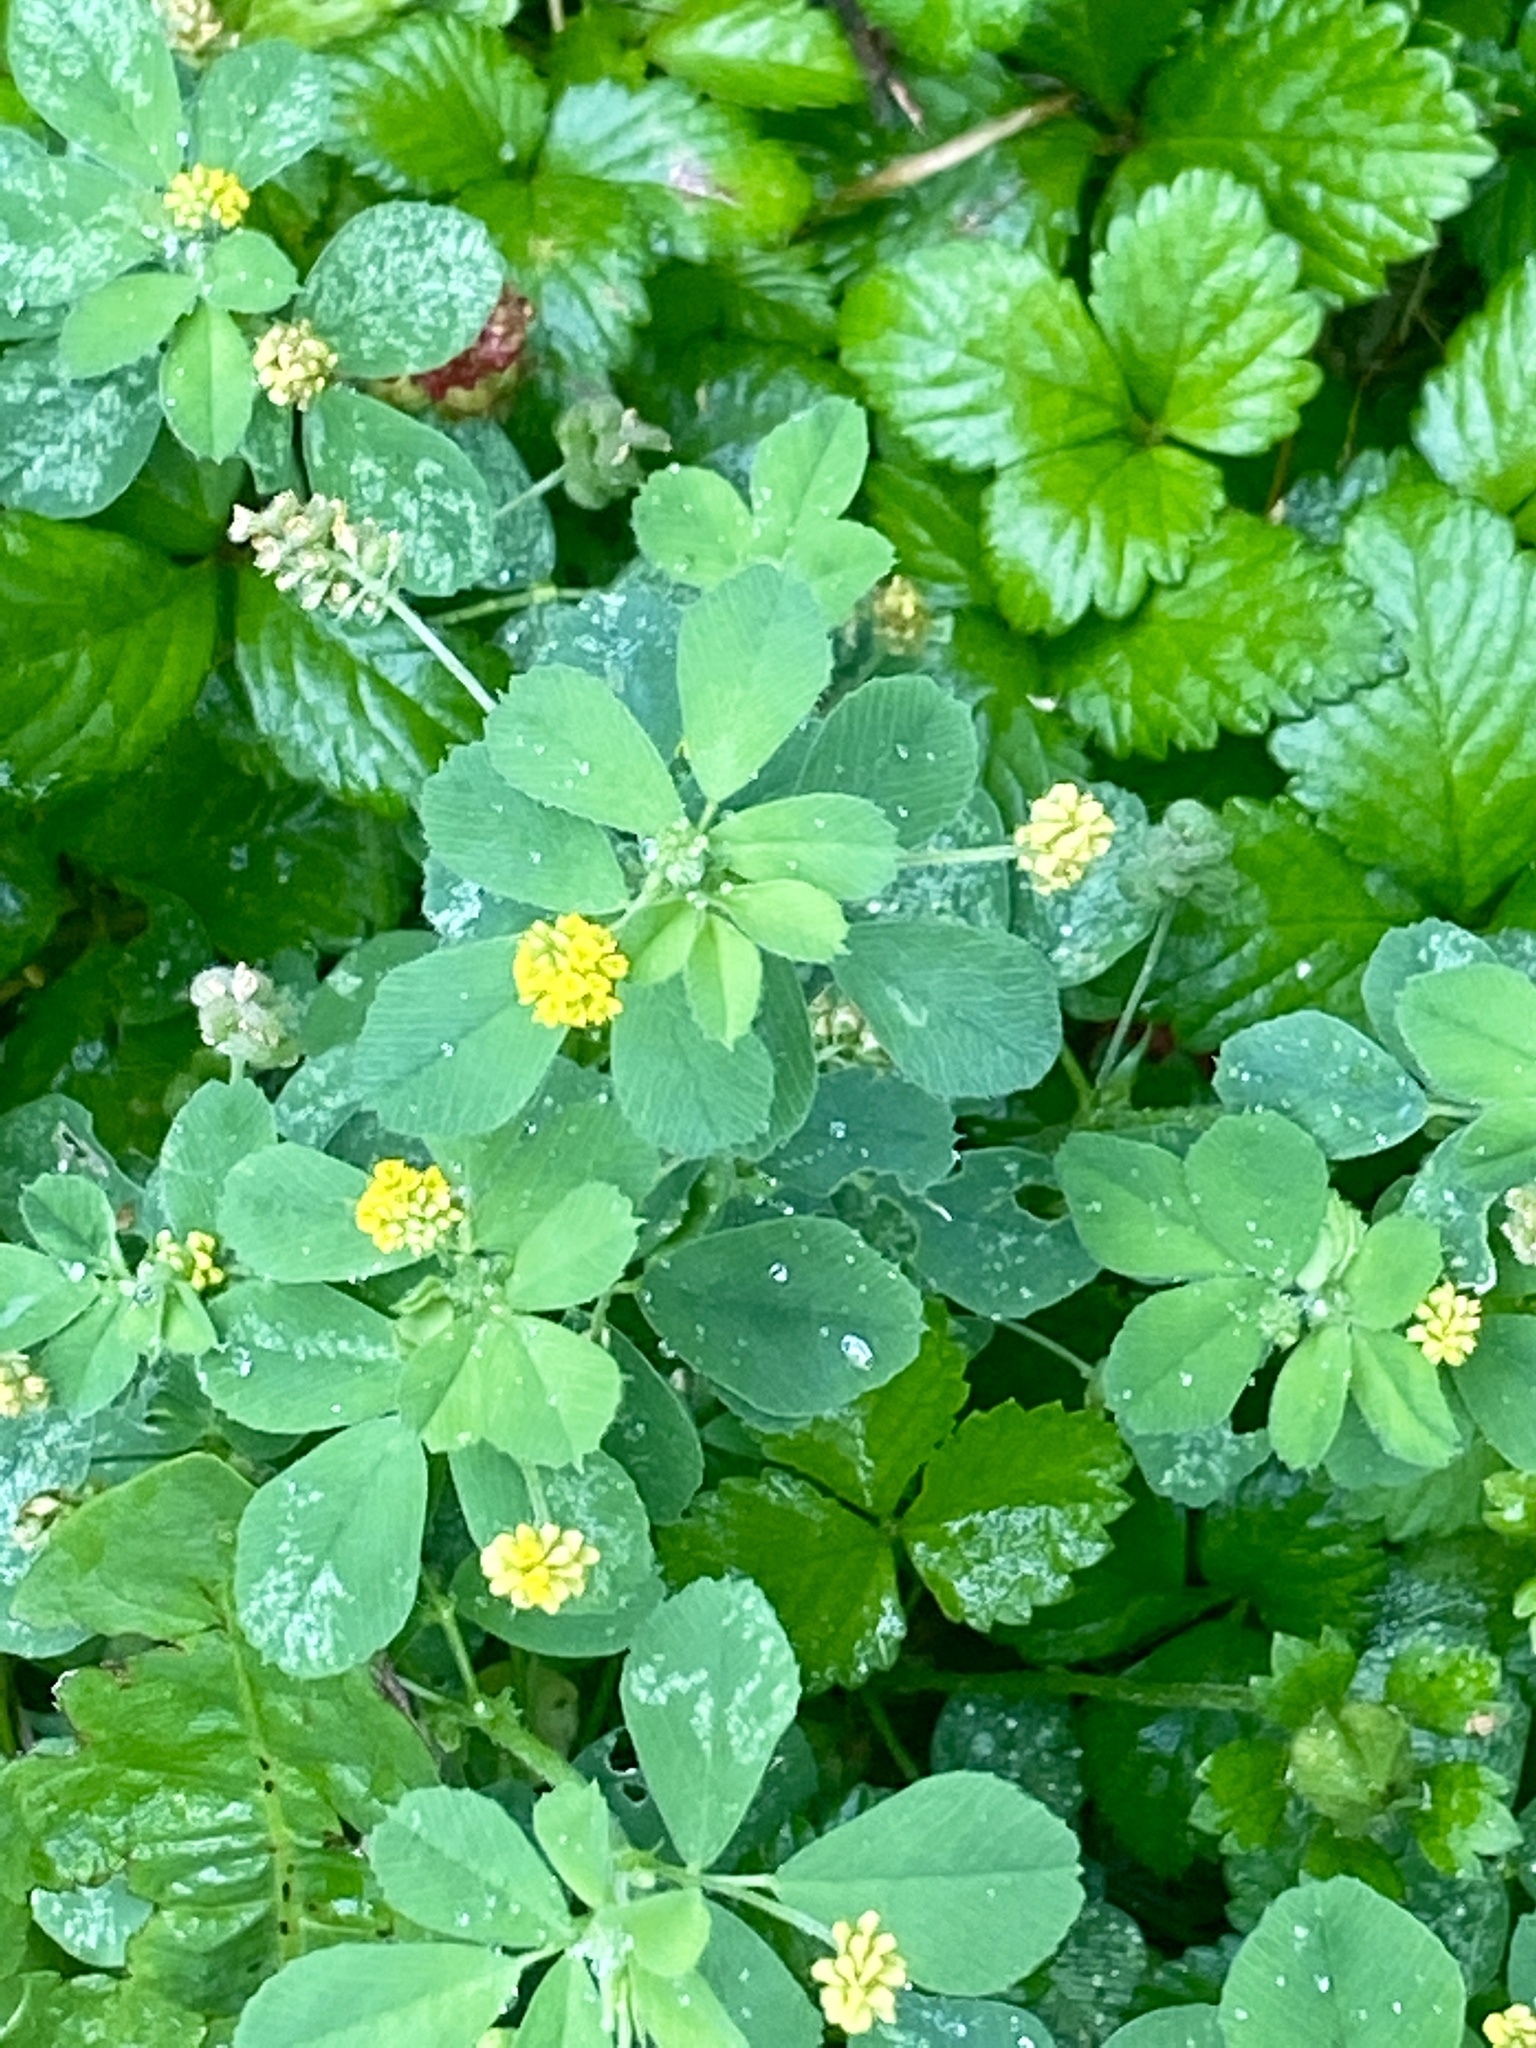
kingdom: Plantae
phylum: Tracheophyta
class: Magnoliopsida
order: Fabales
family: Fabaceae
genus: Medicago
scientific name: Medicago lupulina
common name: Black medick
